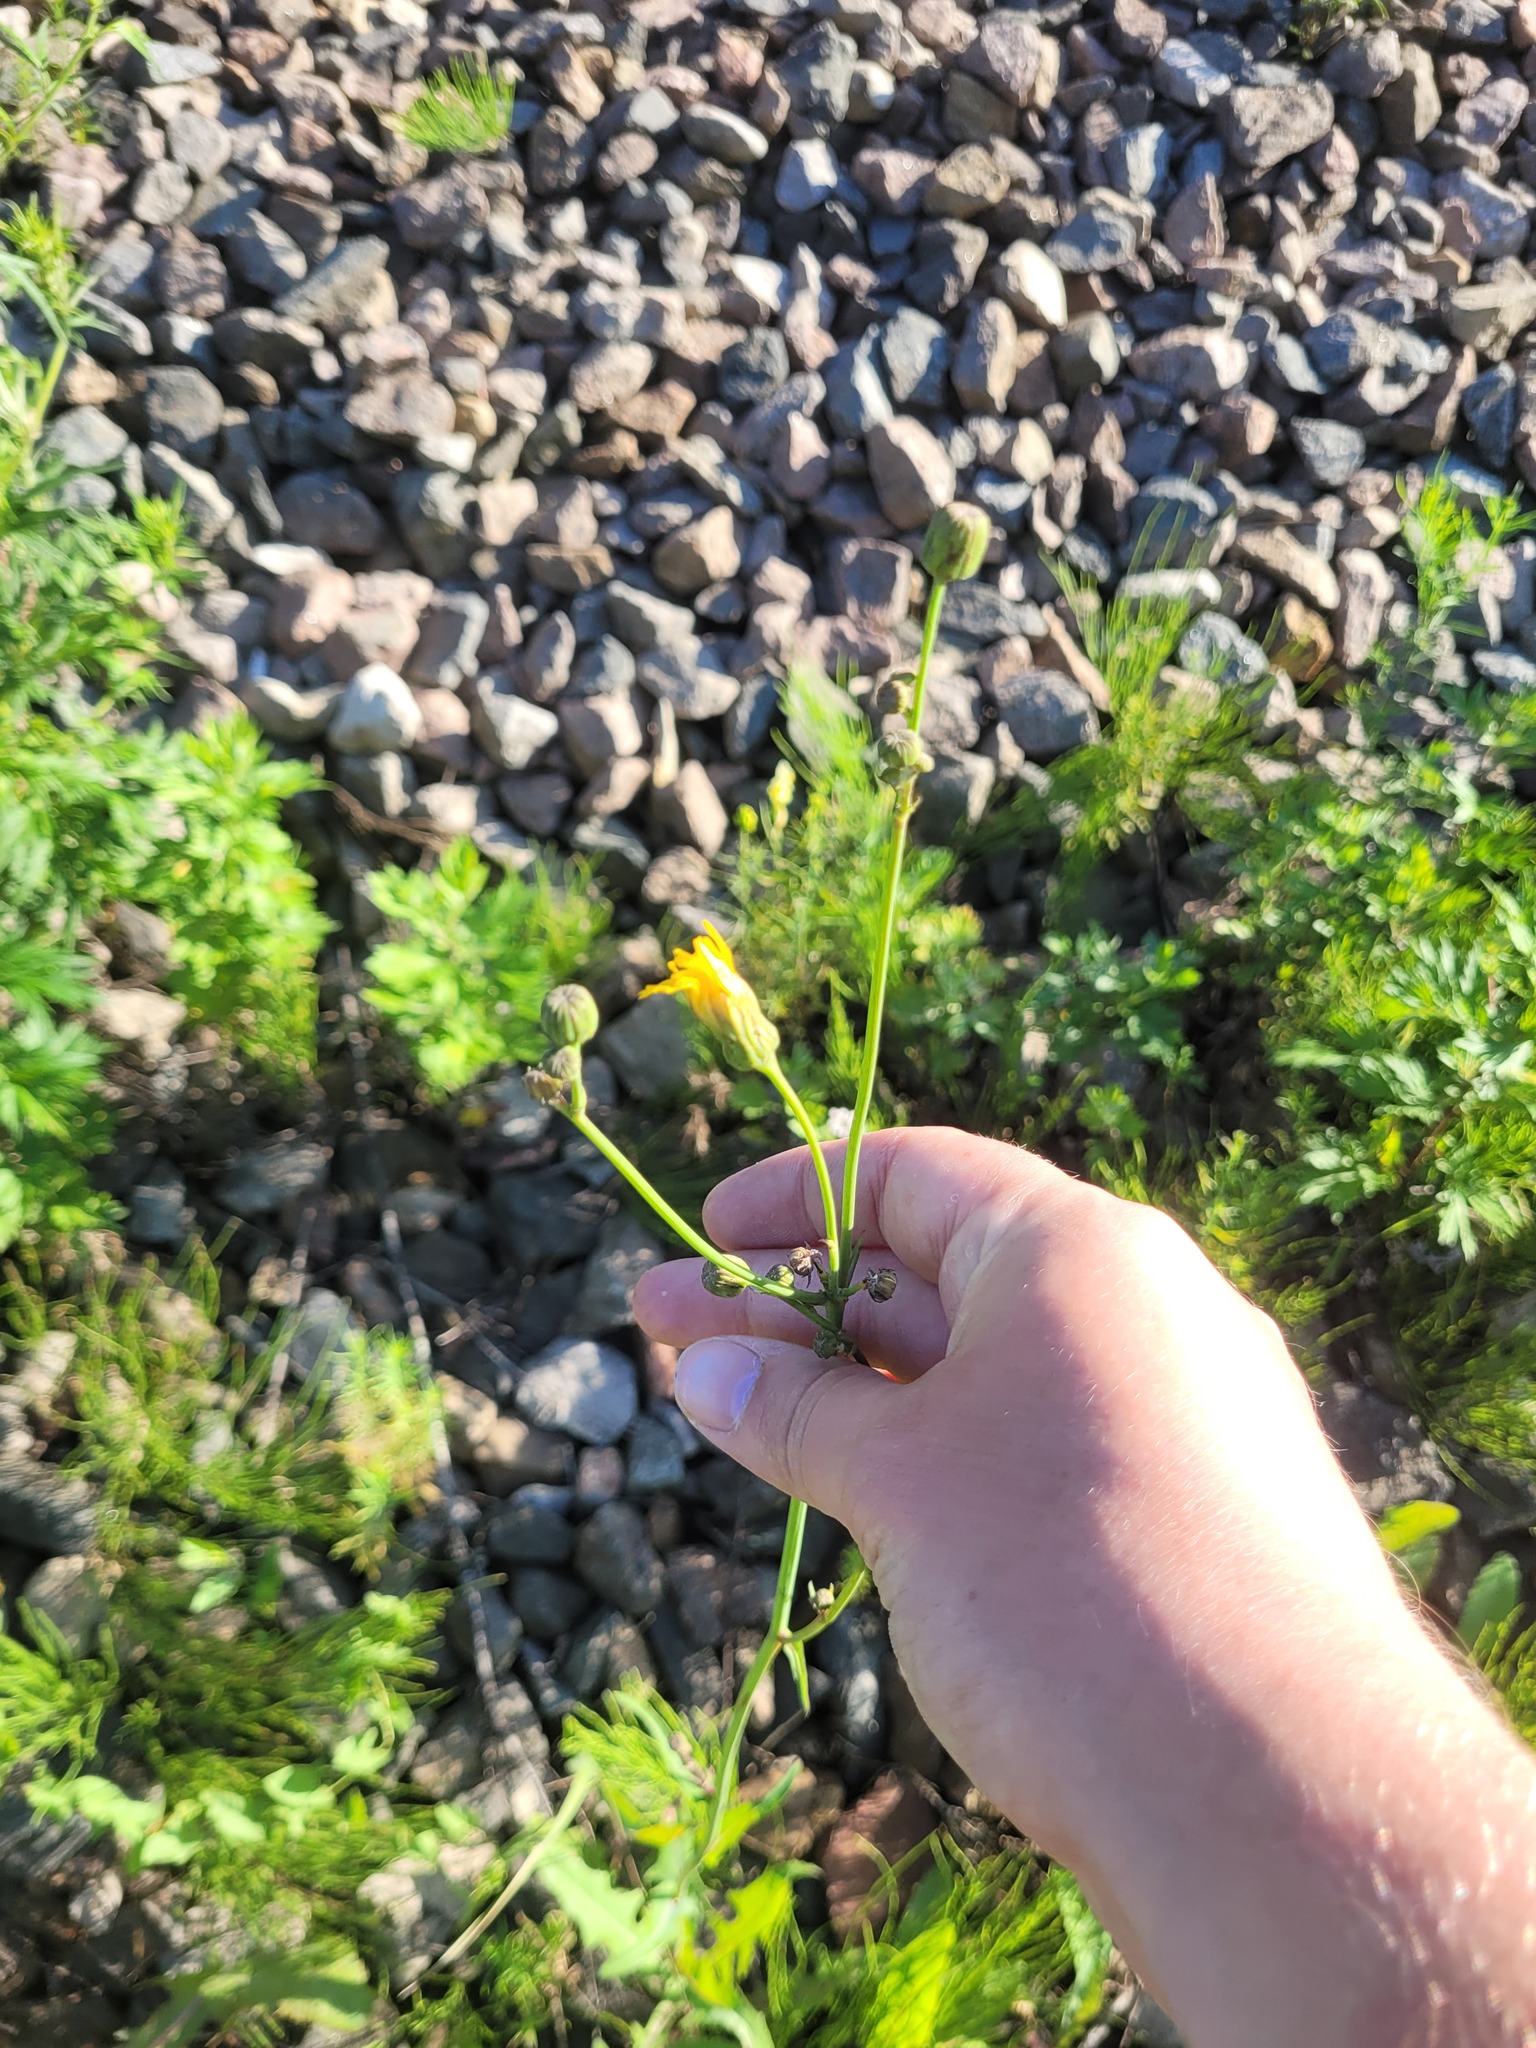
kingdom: Plantae
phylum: Tracheophyta
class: Magnoliopsida
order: Asterales
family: Asteraceae
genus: Sonchus
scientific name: Sonchus arvensis
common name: Perennial sow-thistle
